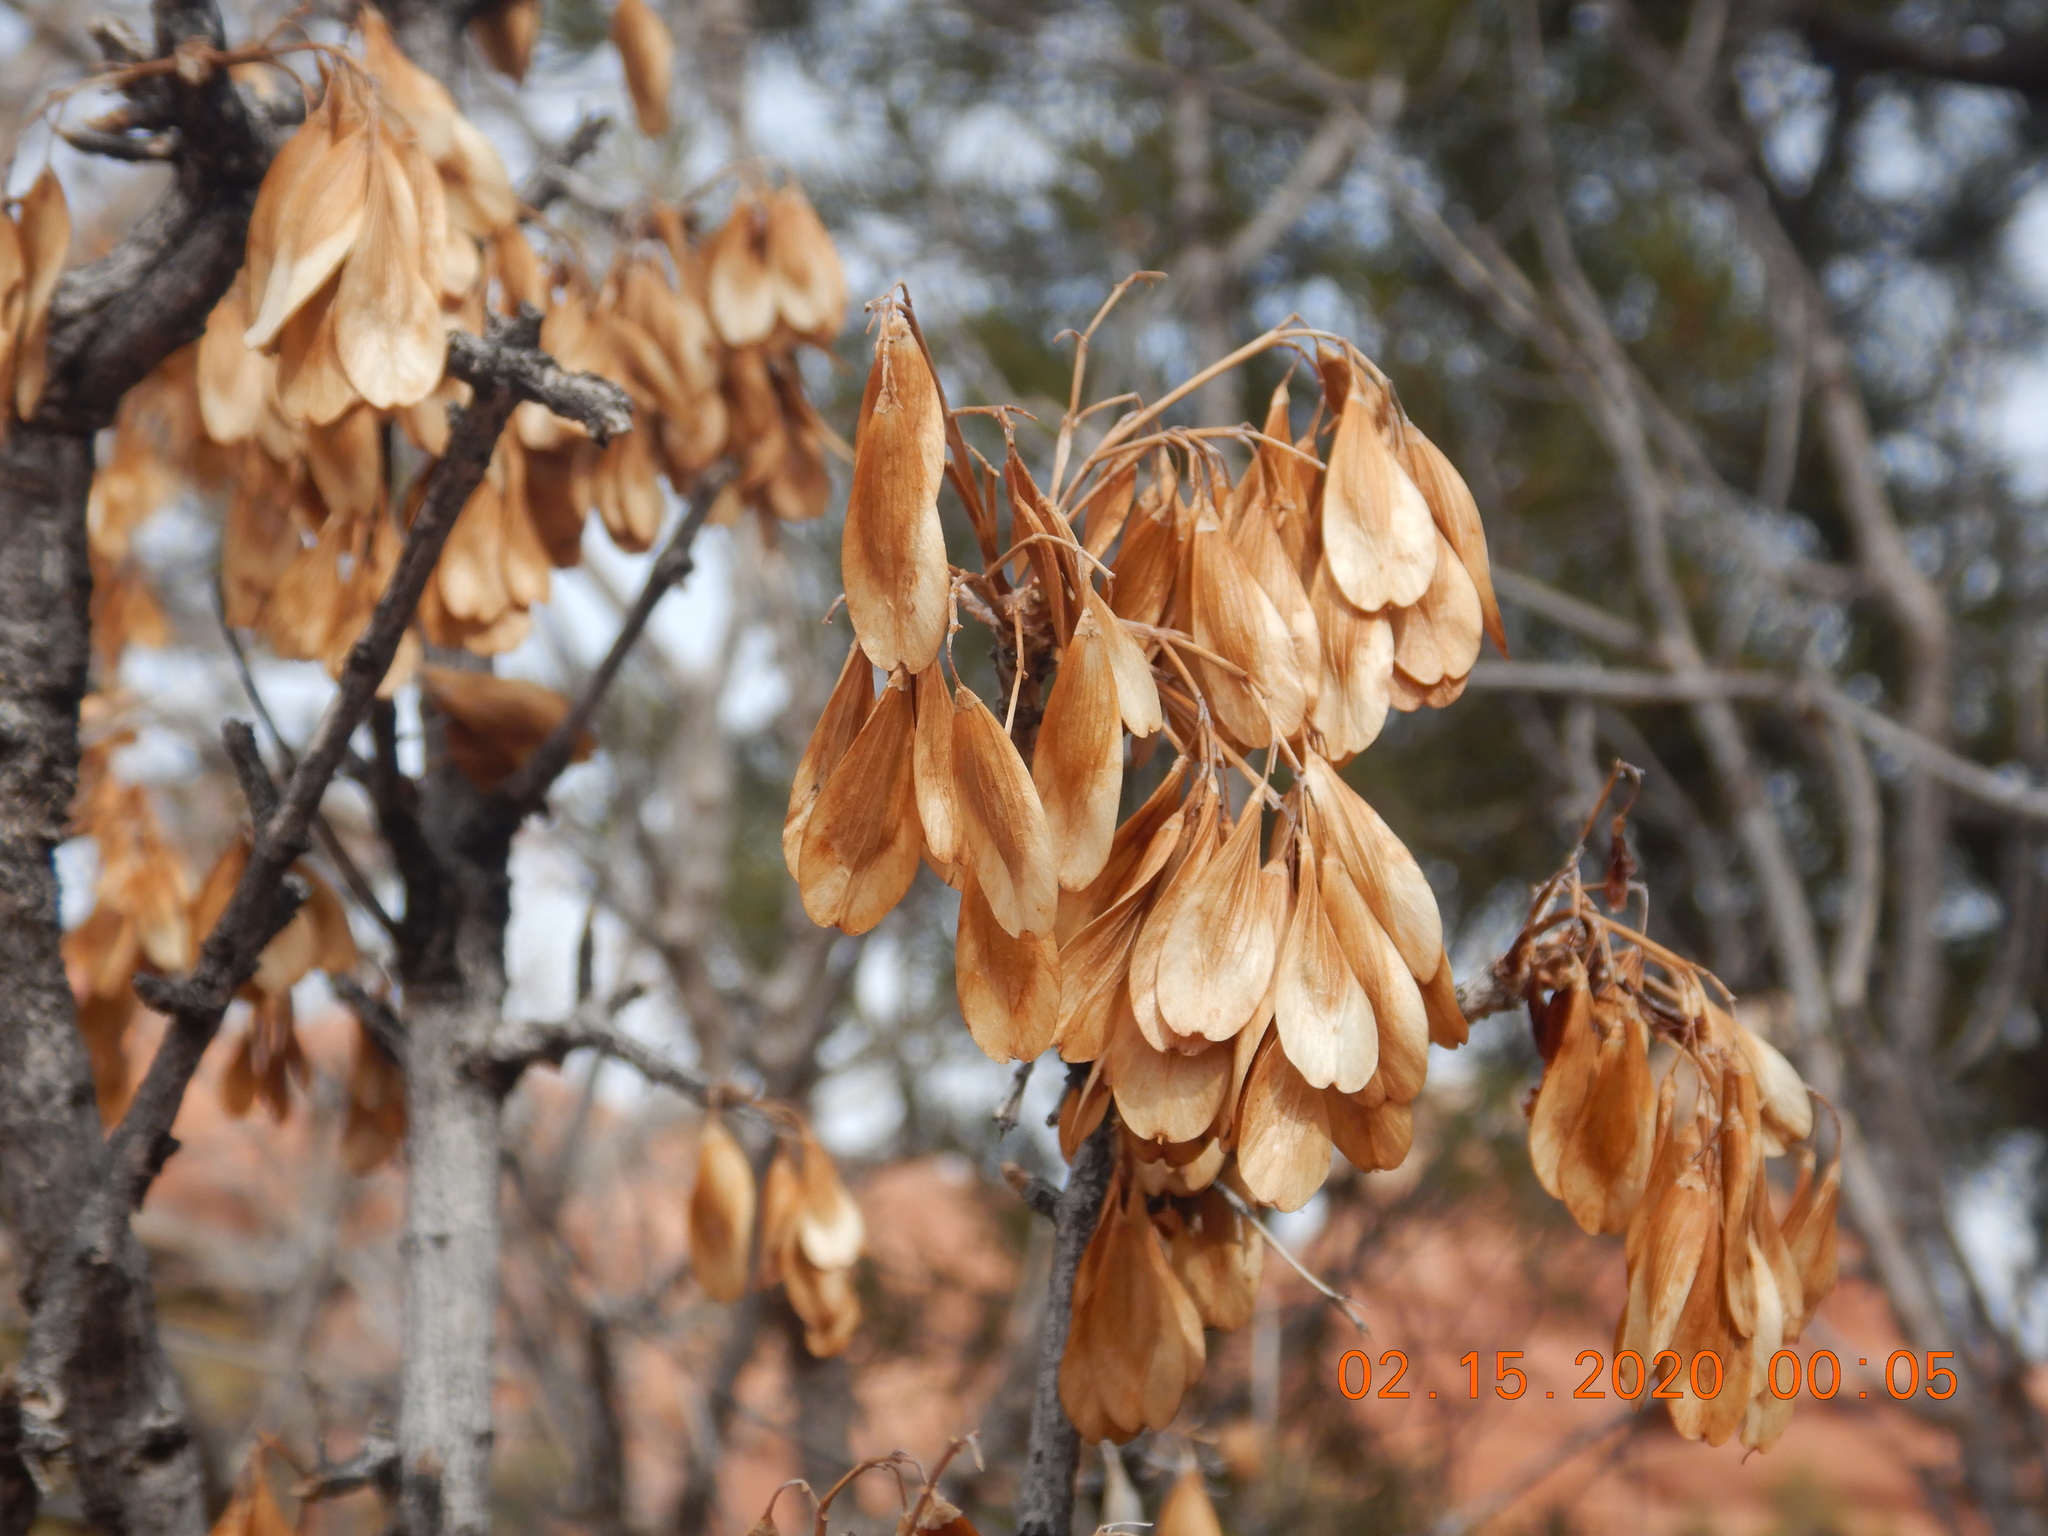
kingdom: Plantae
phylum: Tracheophyta
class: Magnoliopsida
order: Lamiales
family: Oleaceae
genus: Fraxinus
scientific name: Fraxinus anomala
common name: Utah ash
